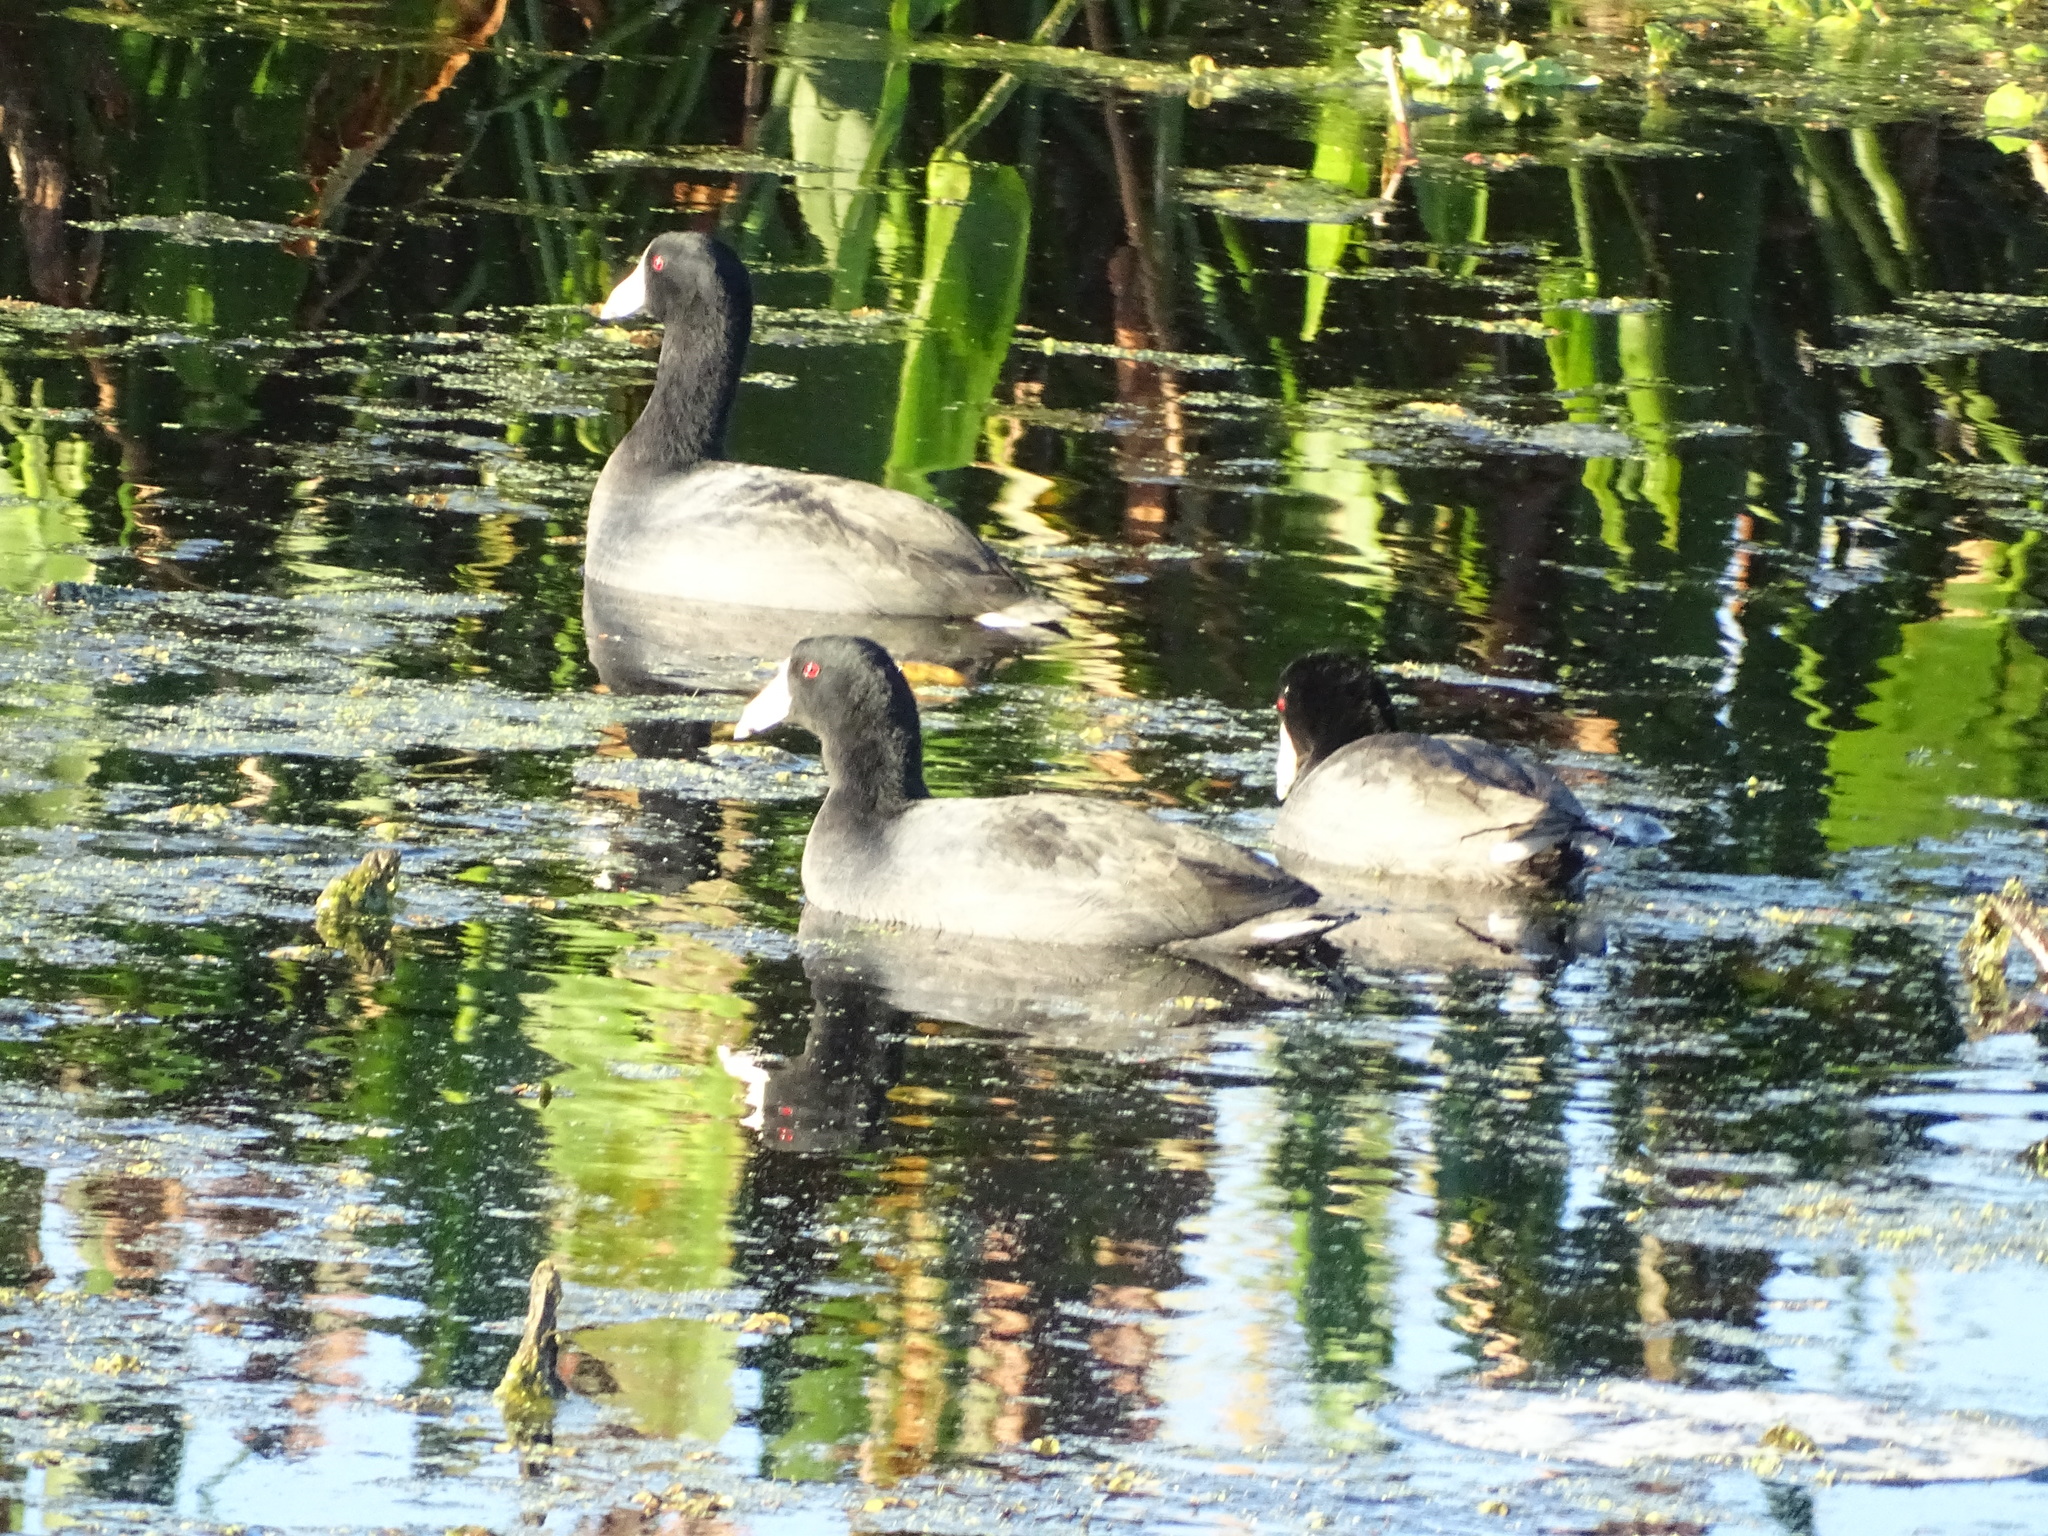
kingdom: Animalia
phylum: Chordata
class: Aves
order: Gruiformes
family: Rallidae
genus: Fulica
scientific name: Fulica americana
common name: American coot
